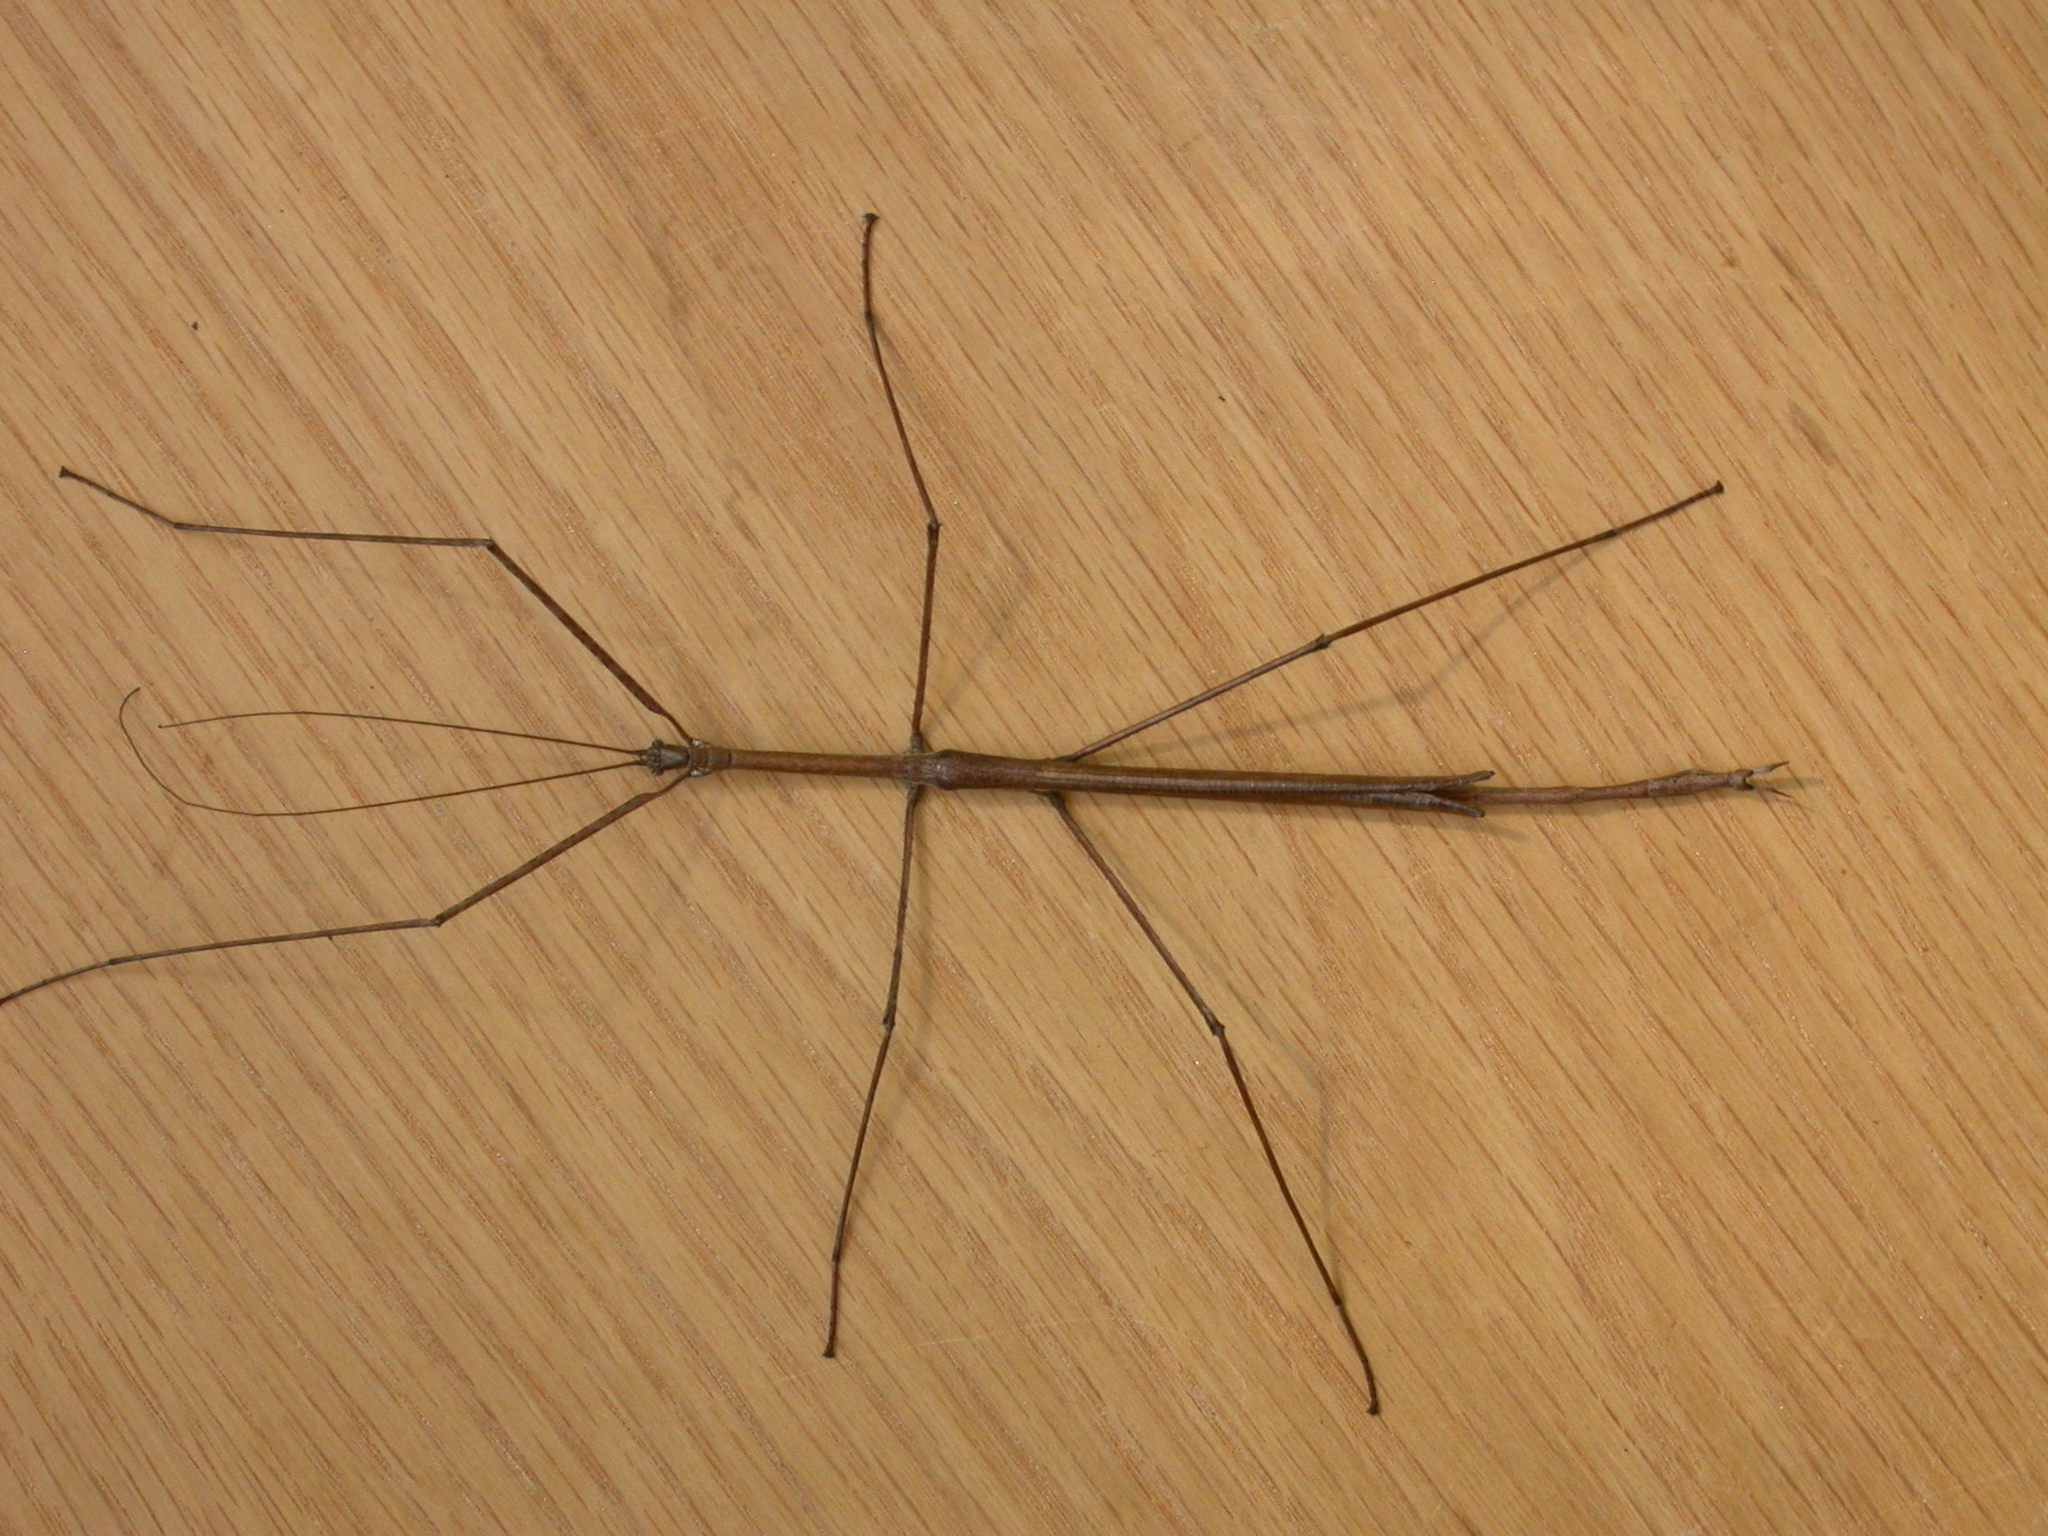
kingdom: Animalia
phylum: Arthropoda
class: Insecta
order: Phasmida
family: Phasmatidae
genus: Ctenomorpha
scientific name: Ctenomorpha marginipennis
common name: Margined-winged stick-insect
